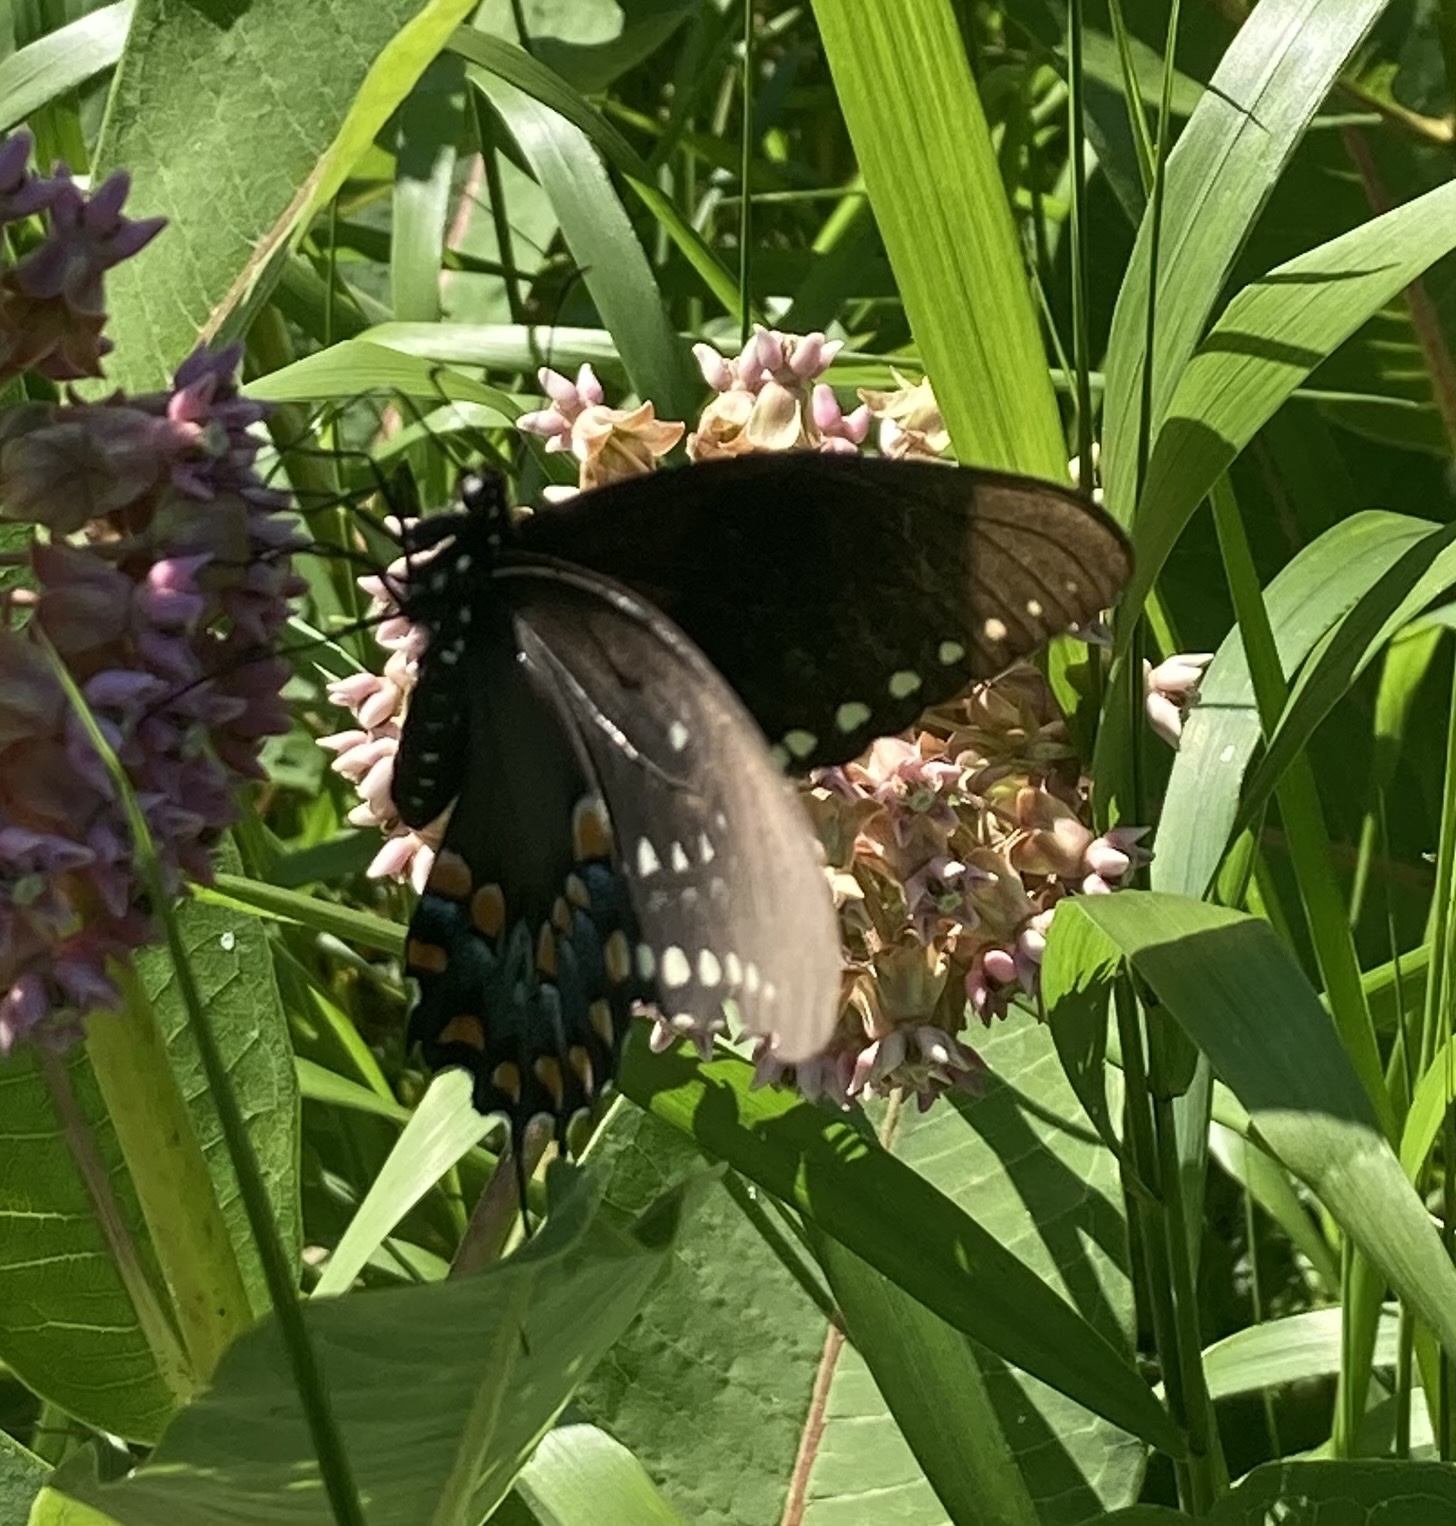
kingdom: Animalia
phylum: Arthropoda
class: Insecta
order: Lepidoptera
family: Papilionidae
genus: Papilio
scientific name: Papilio troilus
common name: Spicebush swallowtail
